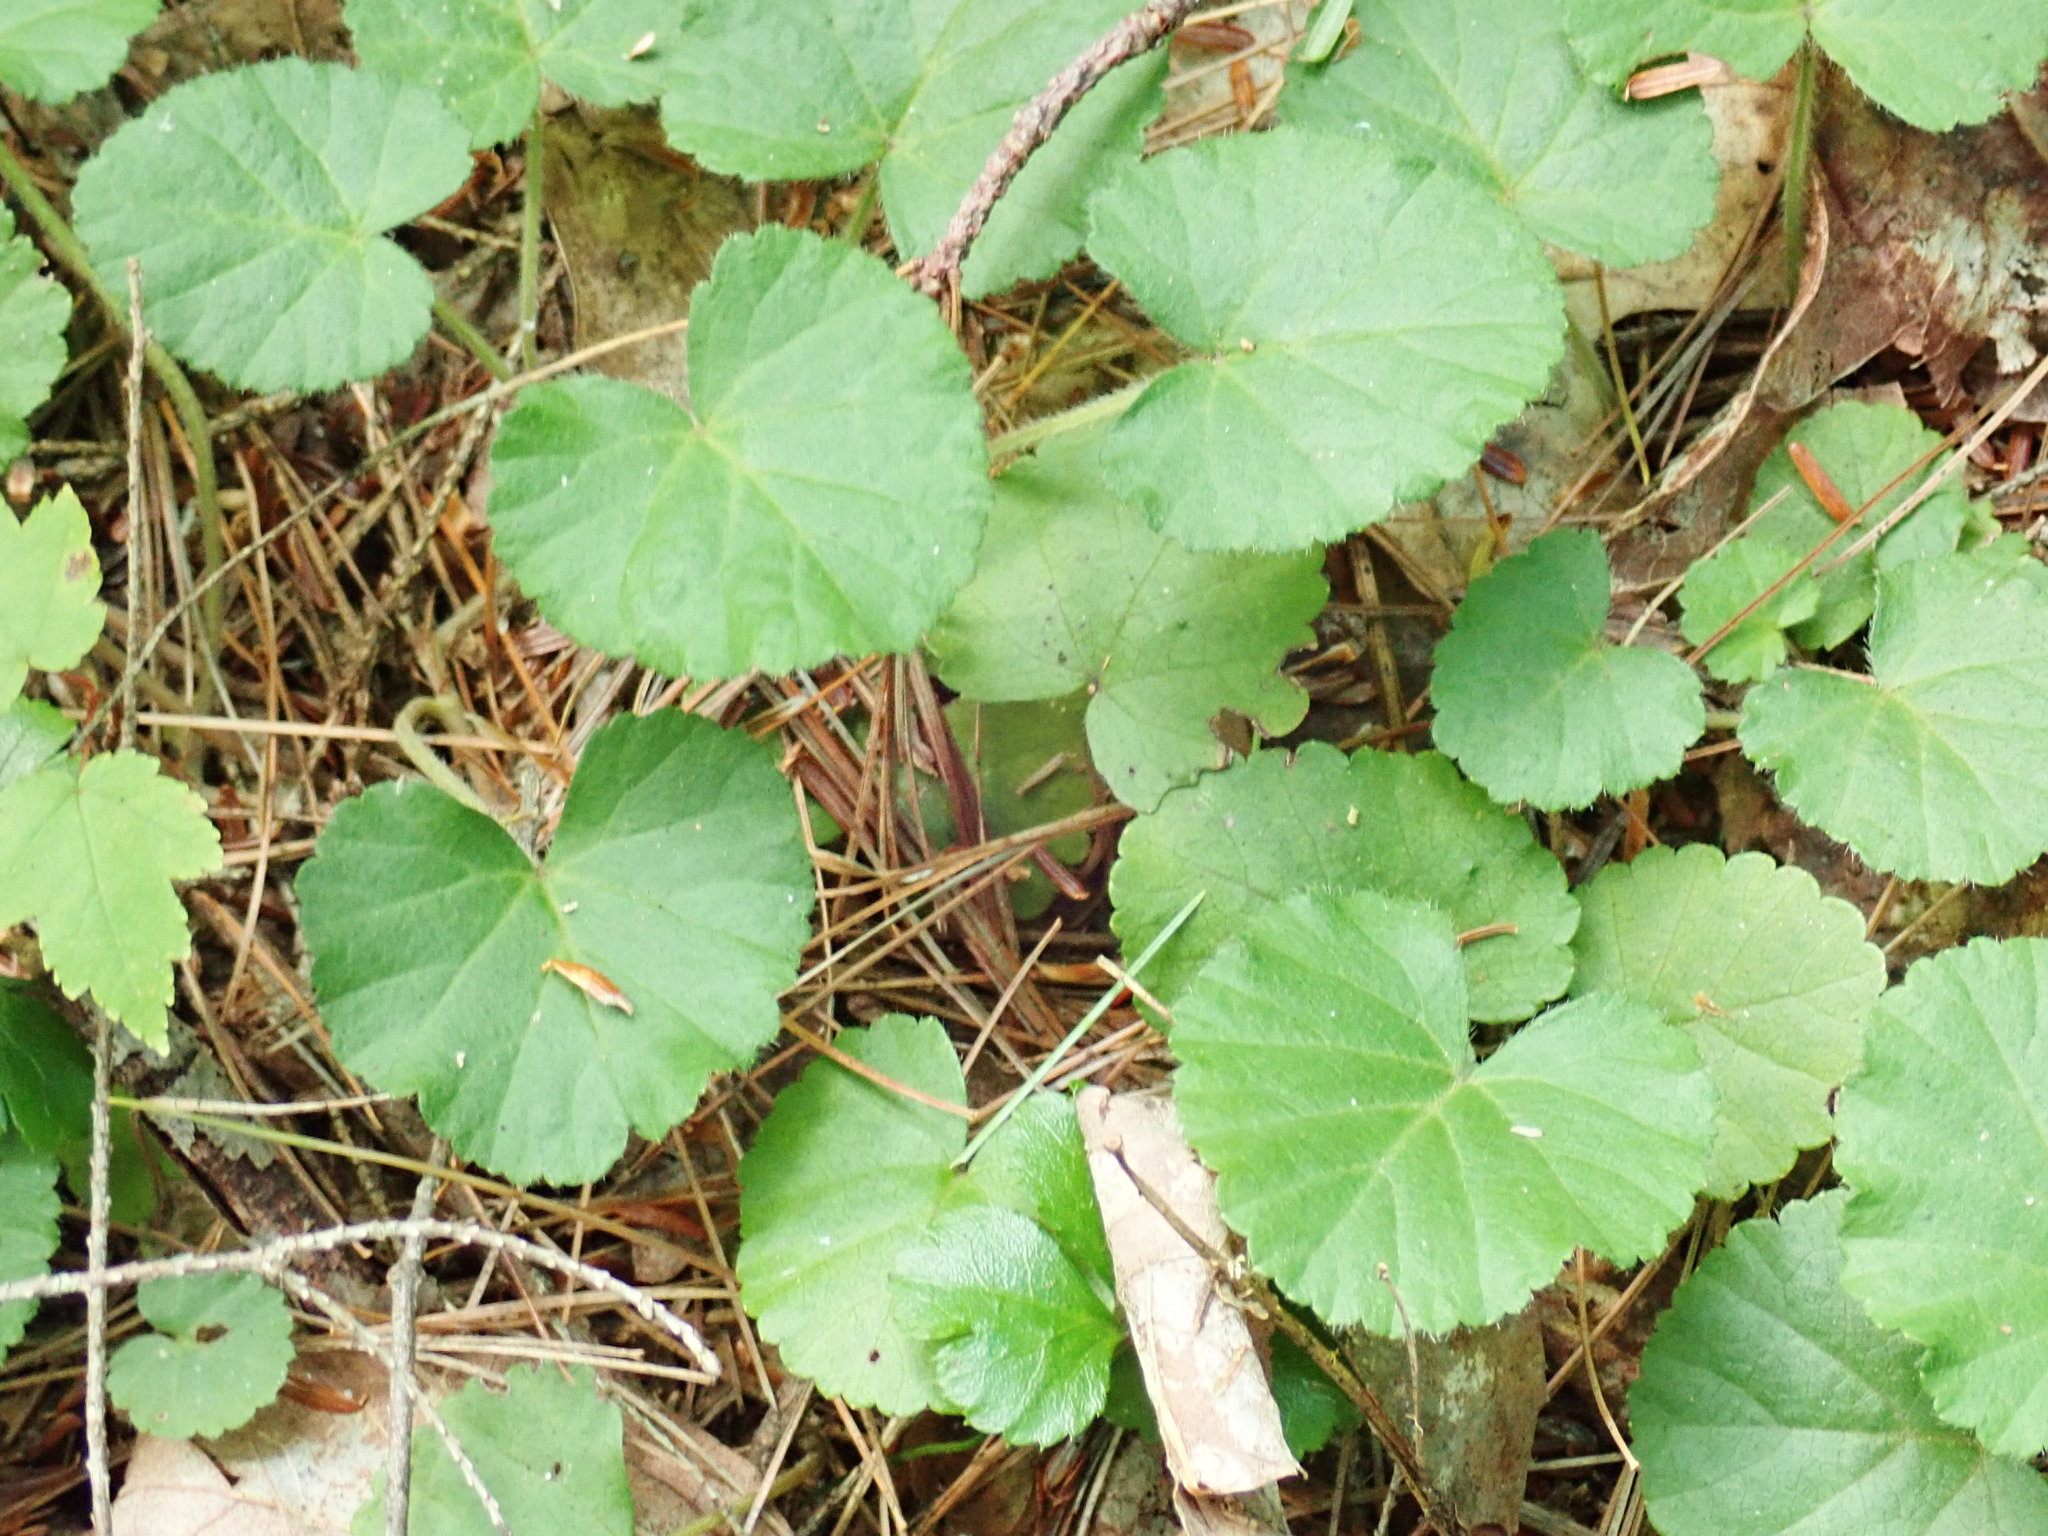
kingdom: Plantae
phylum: Tracheophyta
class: Magnoliopsida
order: Rosales
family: Rosaceae
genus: Dalibarda
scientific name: Dalibarda repens
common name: Dewdrop
